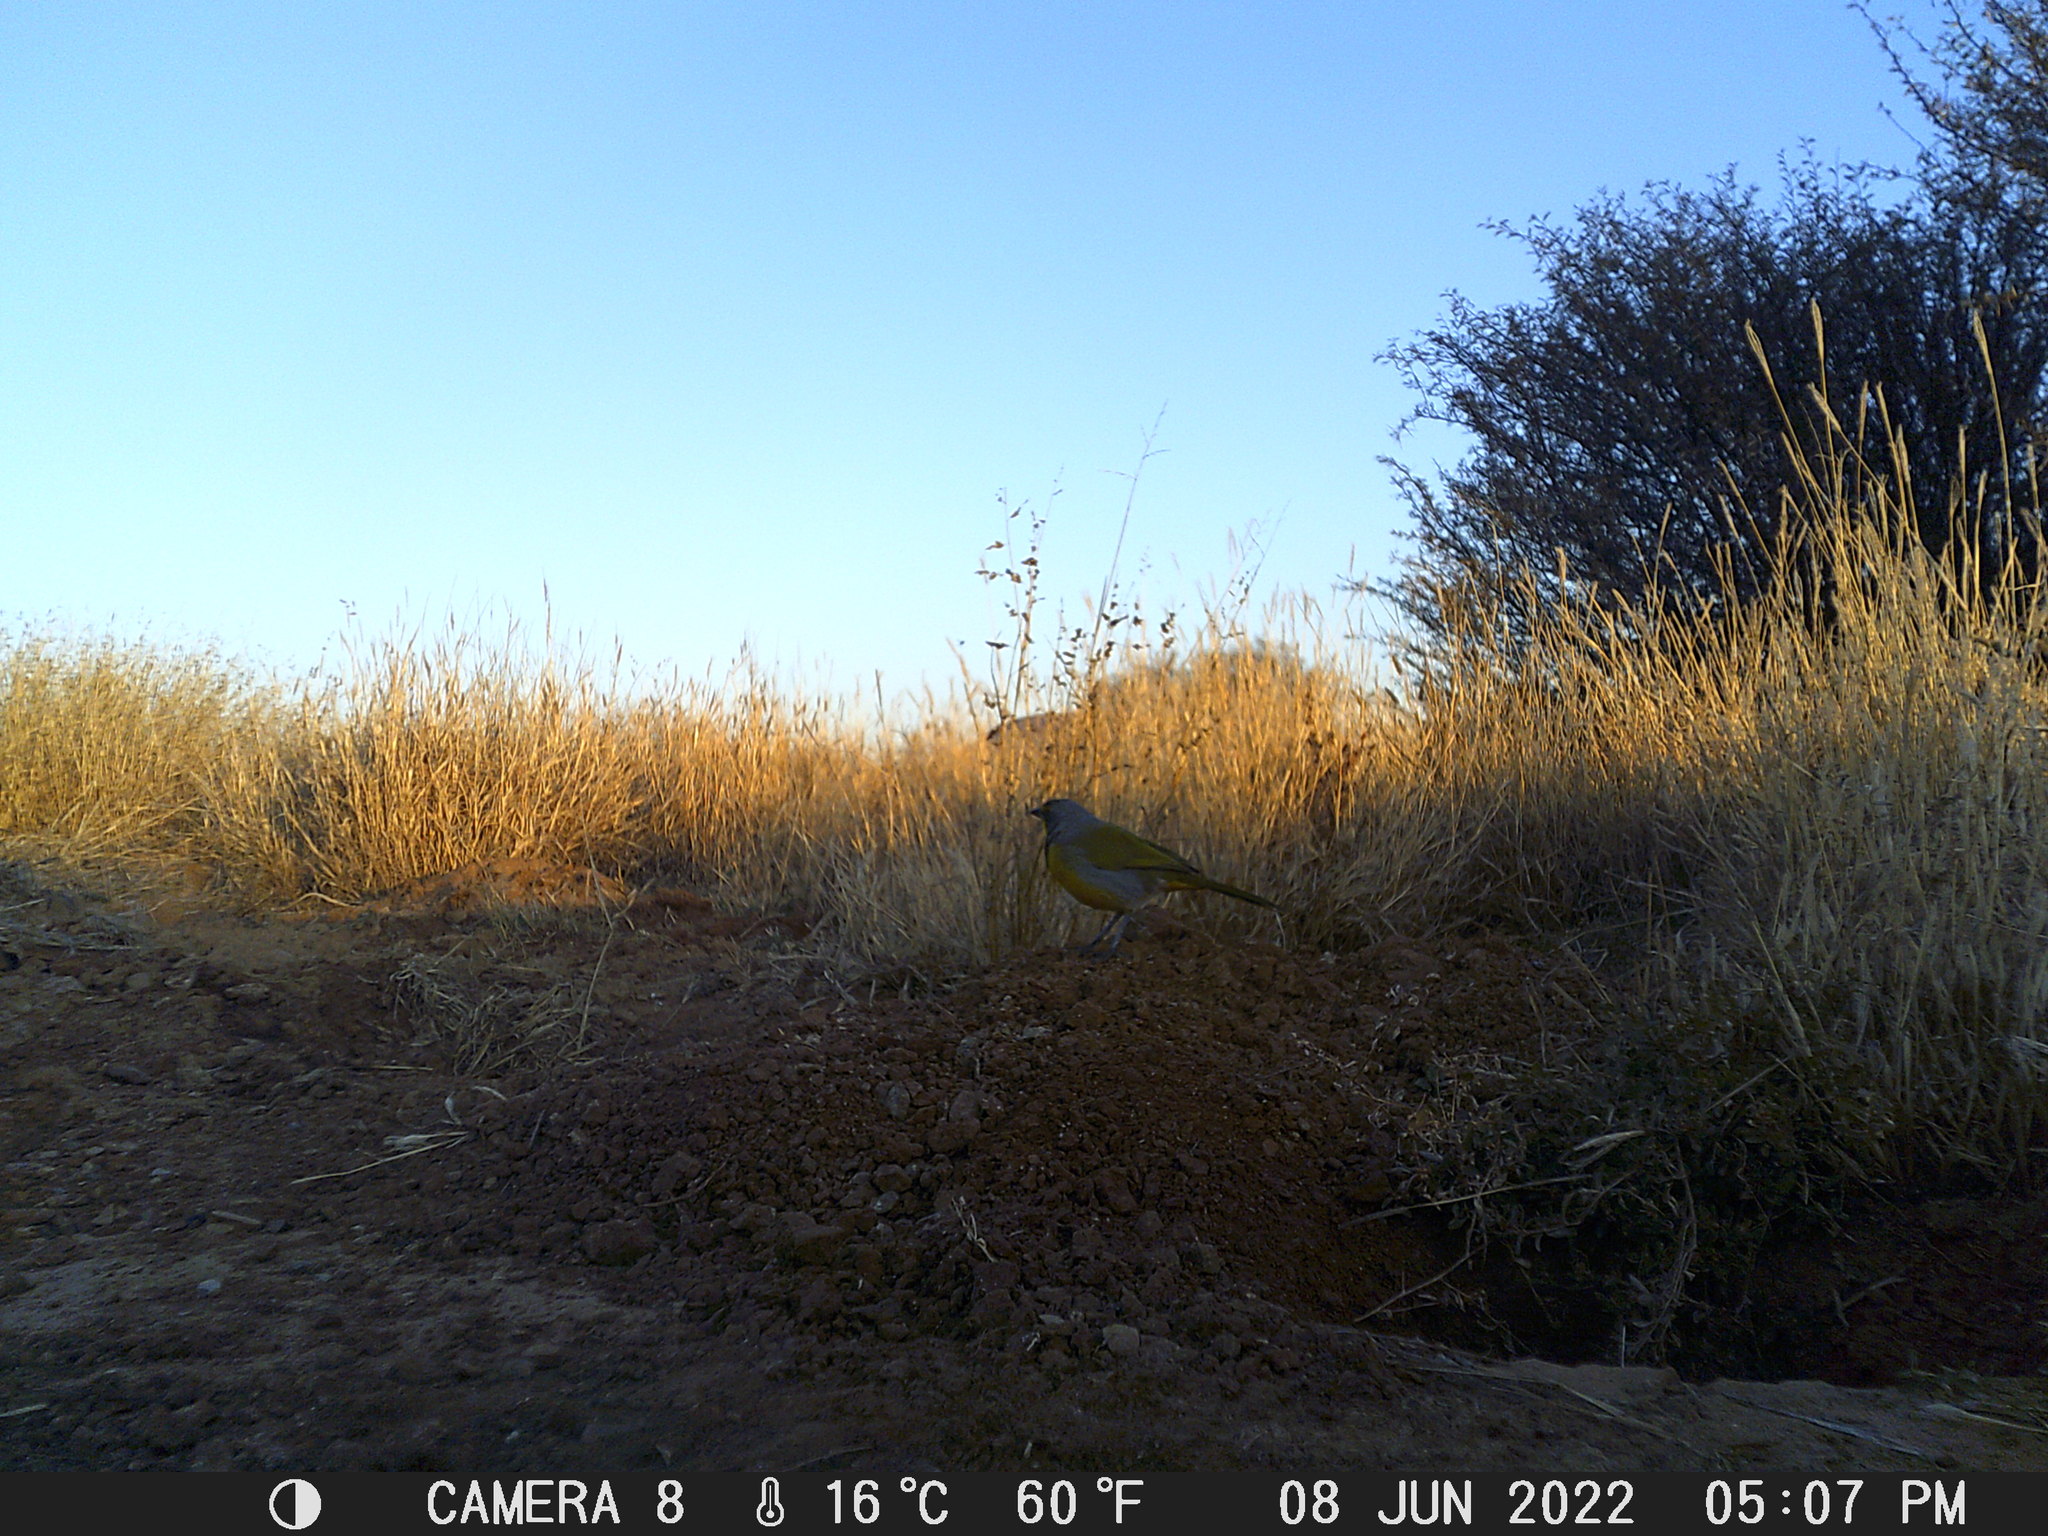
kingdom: Animalia
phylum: Chordata
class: Aves
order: Passeriformes
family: Malaconotidae
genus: Telophorus
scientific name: Telophorus zeylonus
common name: Bokmakierie
